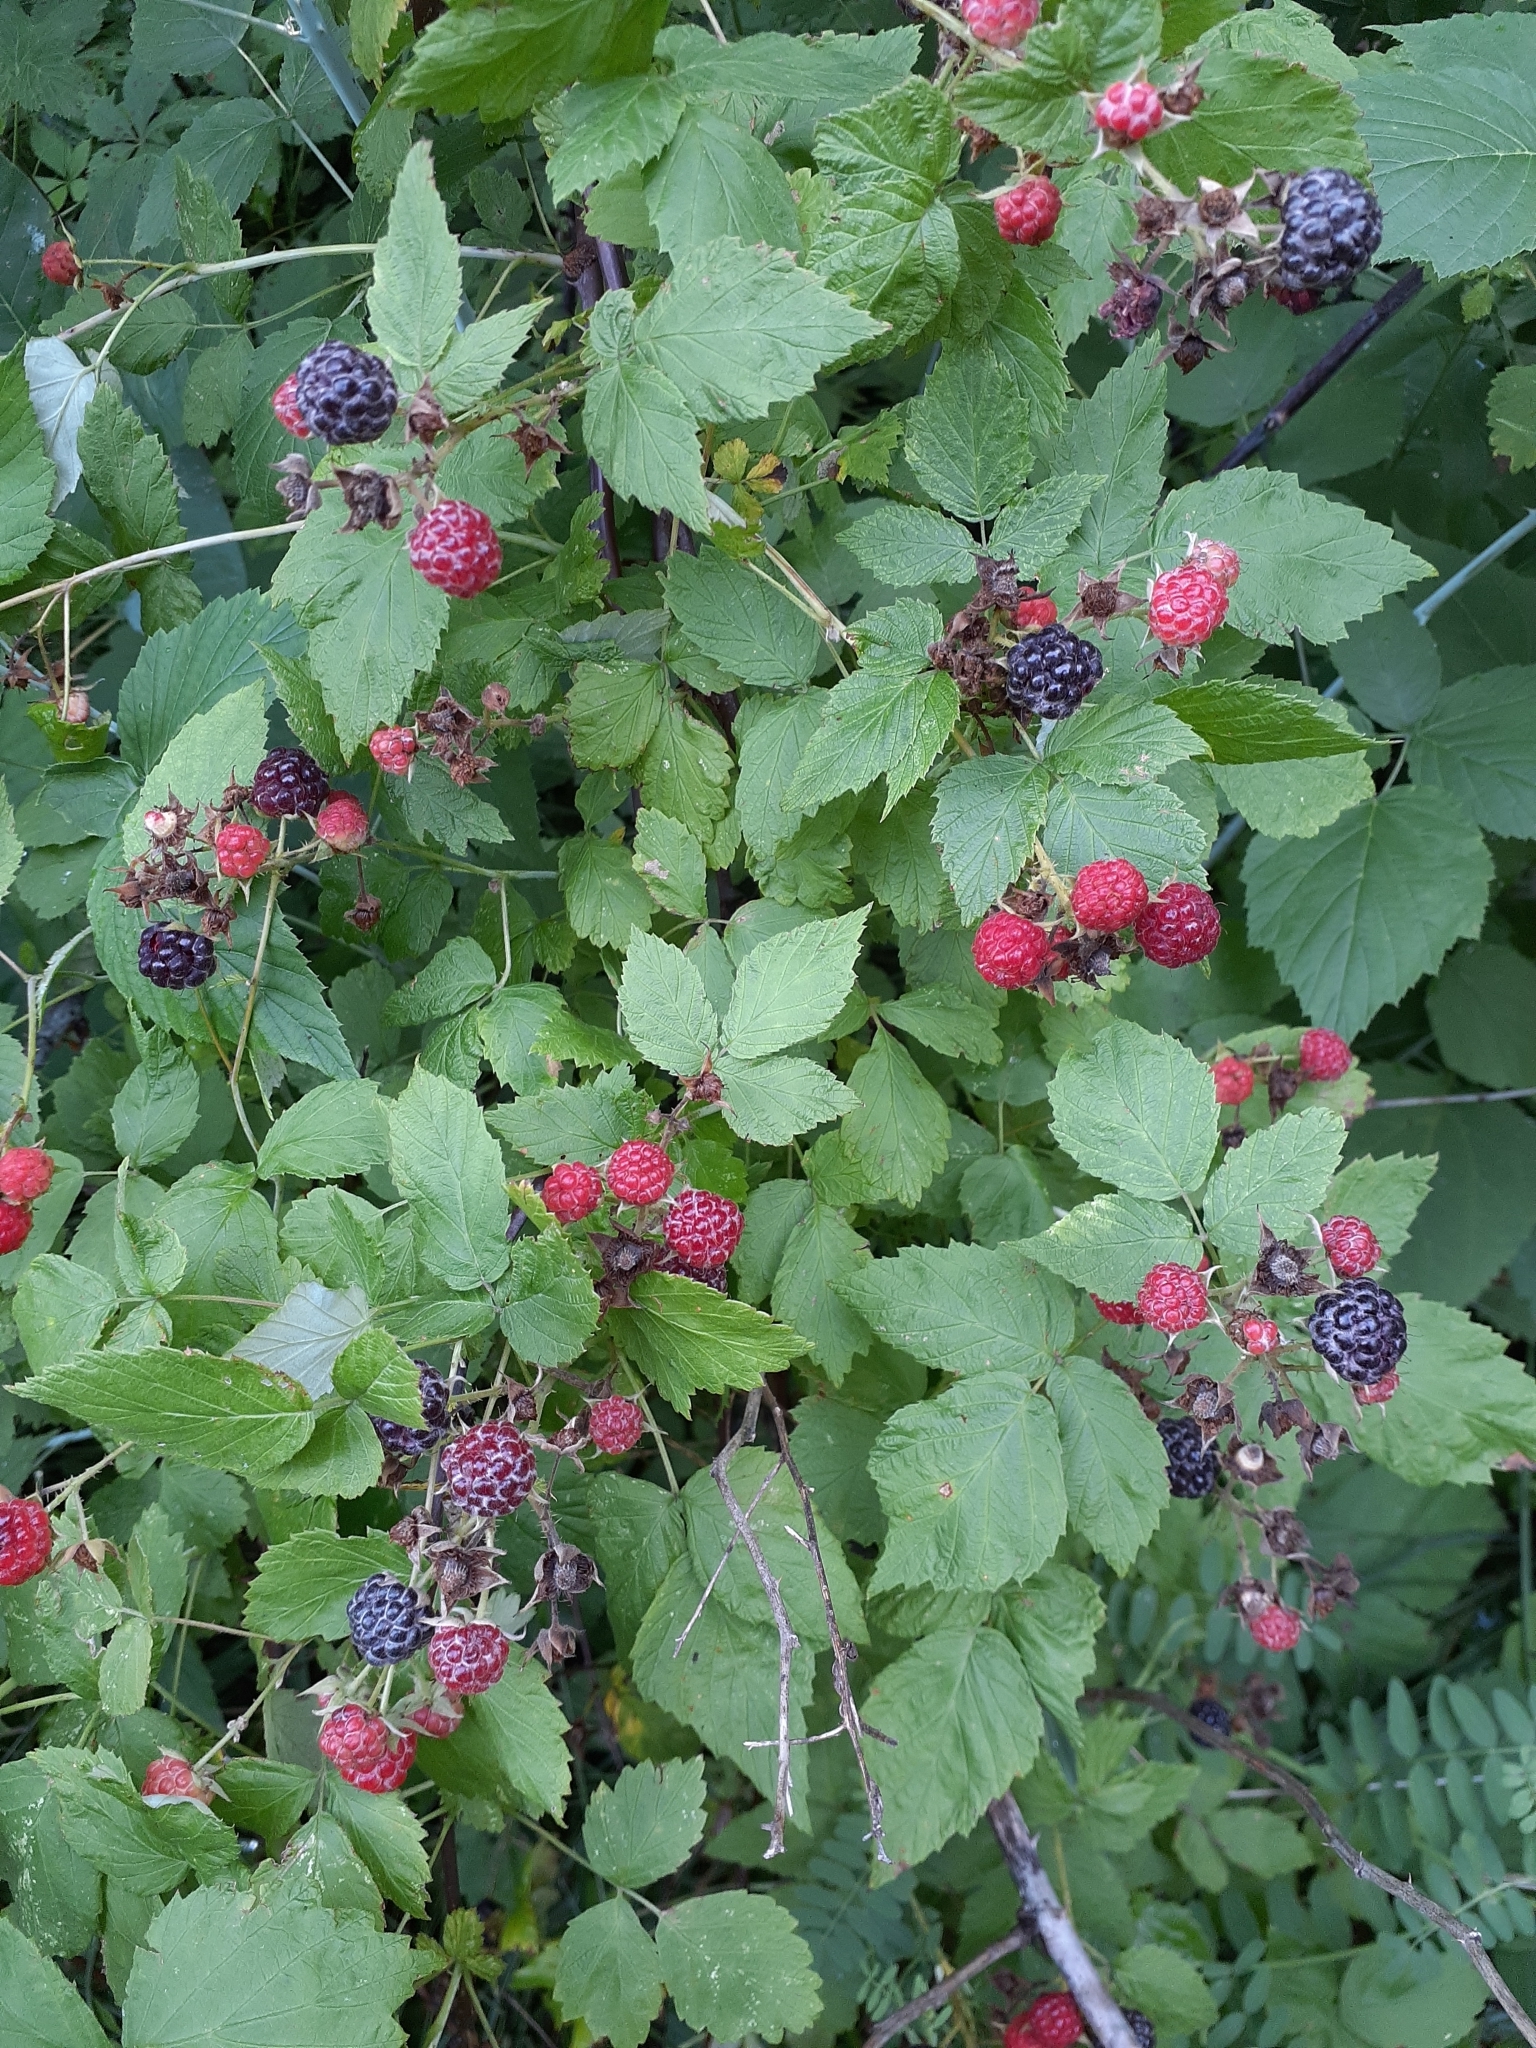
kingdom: Plantae
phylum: Tracheophyta
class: Magnoliopsida
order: Rosales
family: Rosaceae
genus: Rubus
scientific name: Rubus occidentalis
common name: Black raspberry
